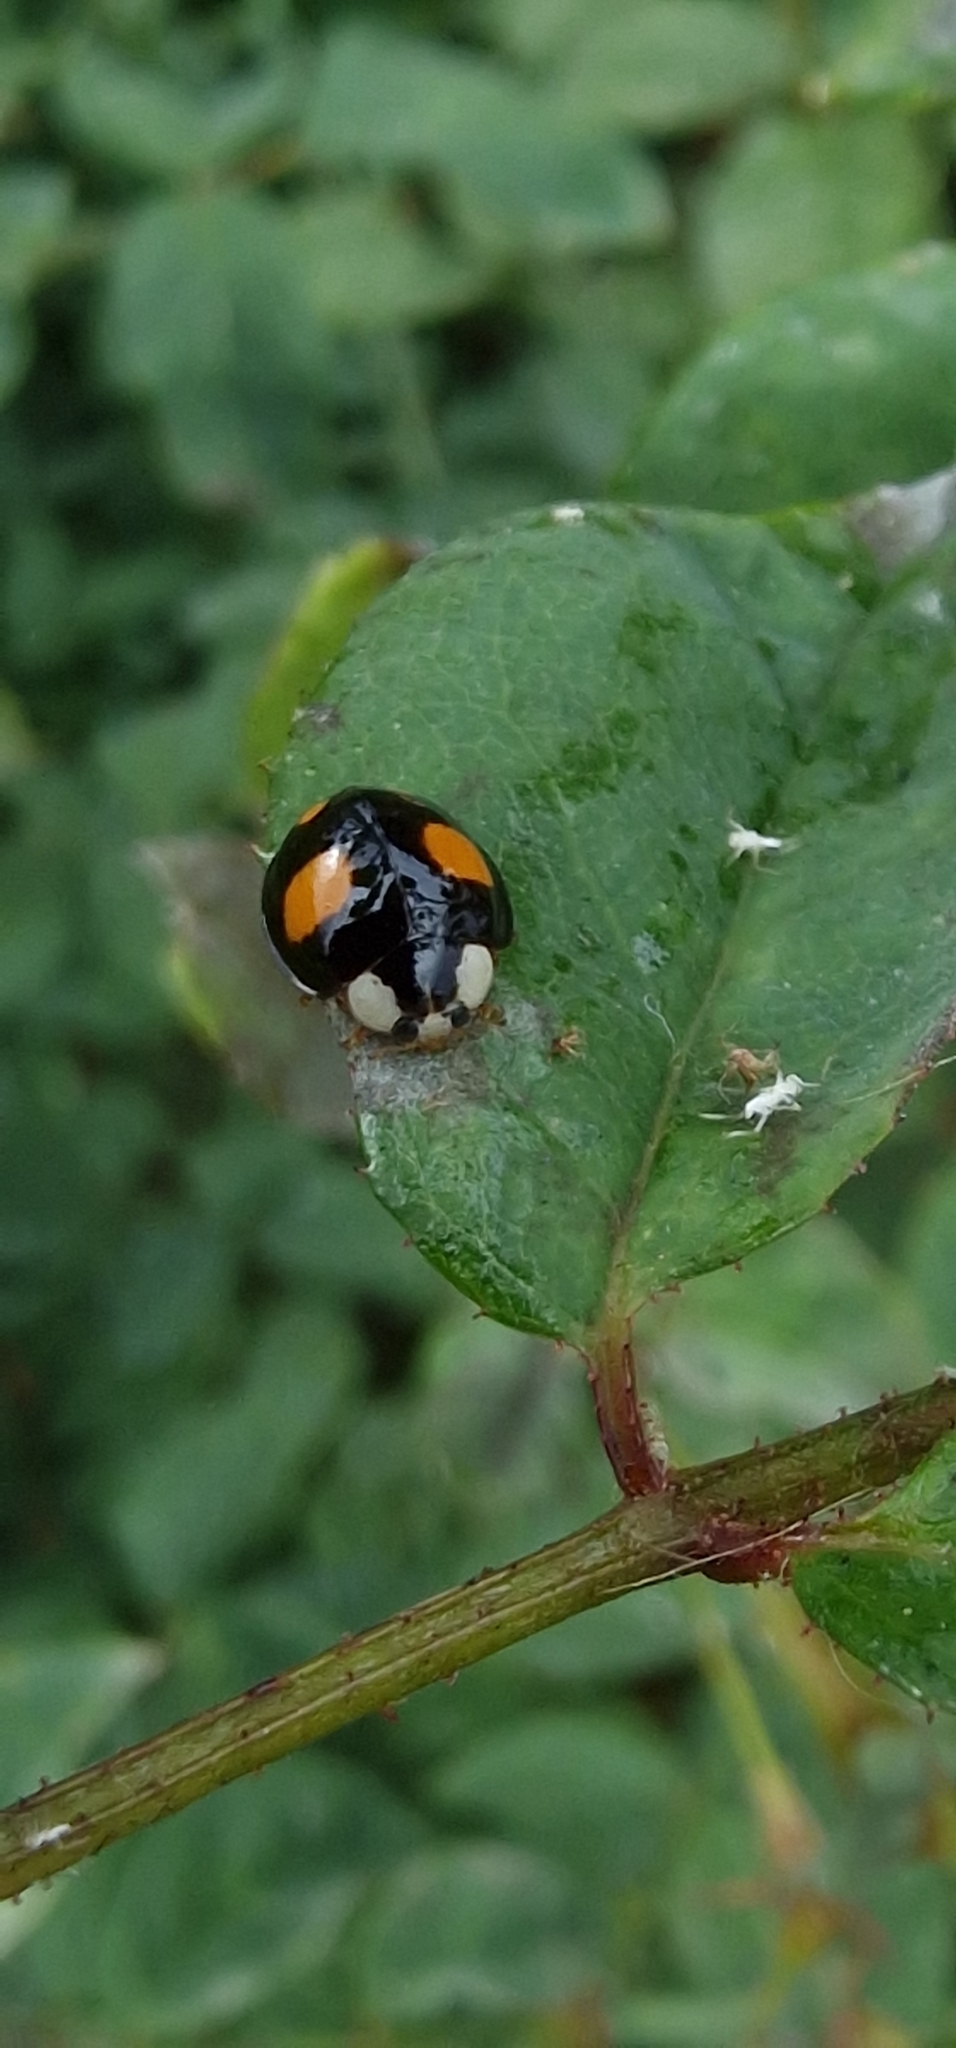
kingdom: Animalia
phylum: Arthropoda
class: Insecta
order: Coleoptera
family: Coccinellidae
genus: Harmonia
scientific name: Harmonia axyridis
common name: Harlequin ladybird
